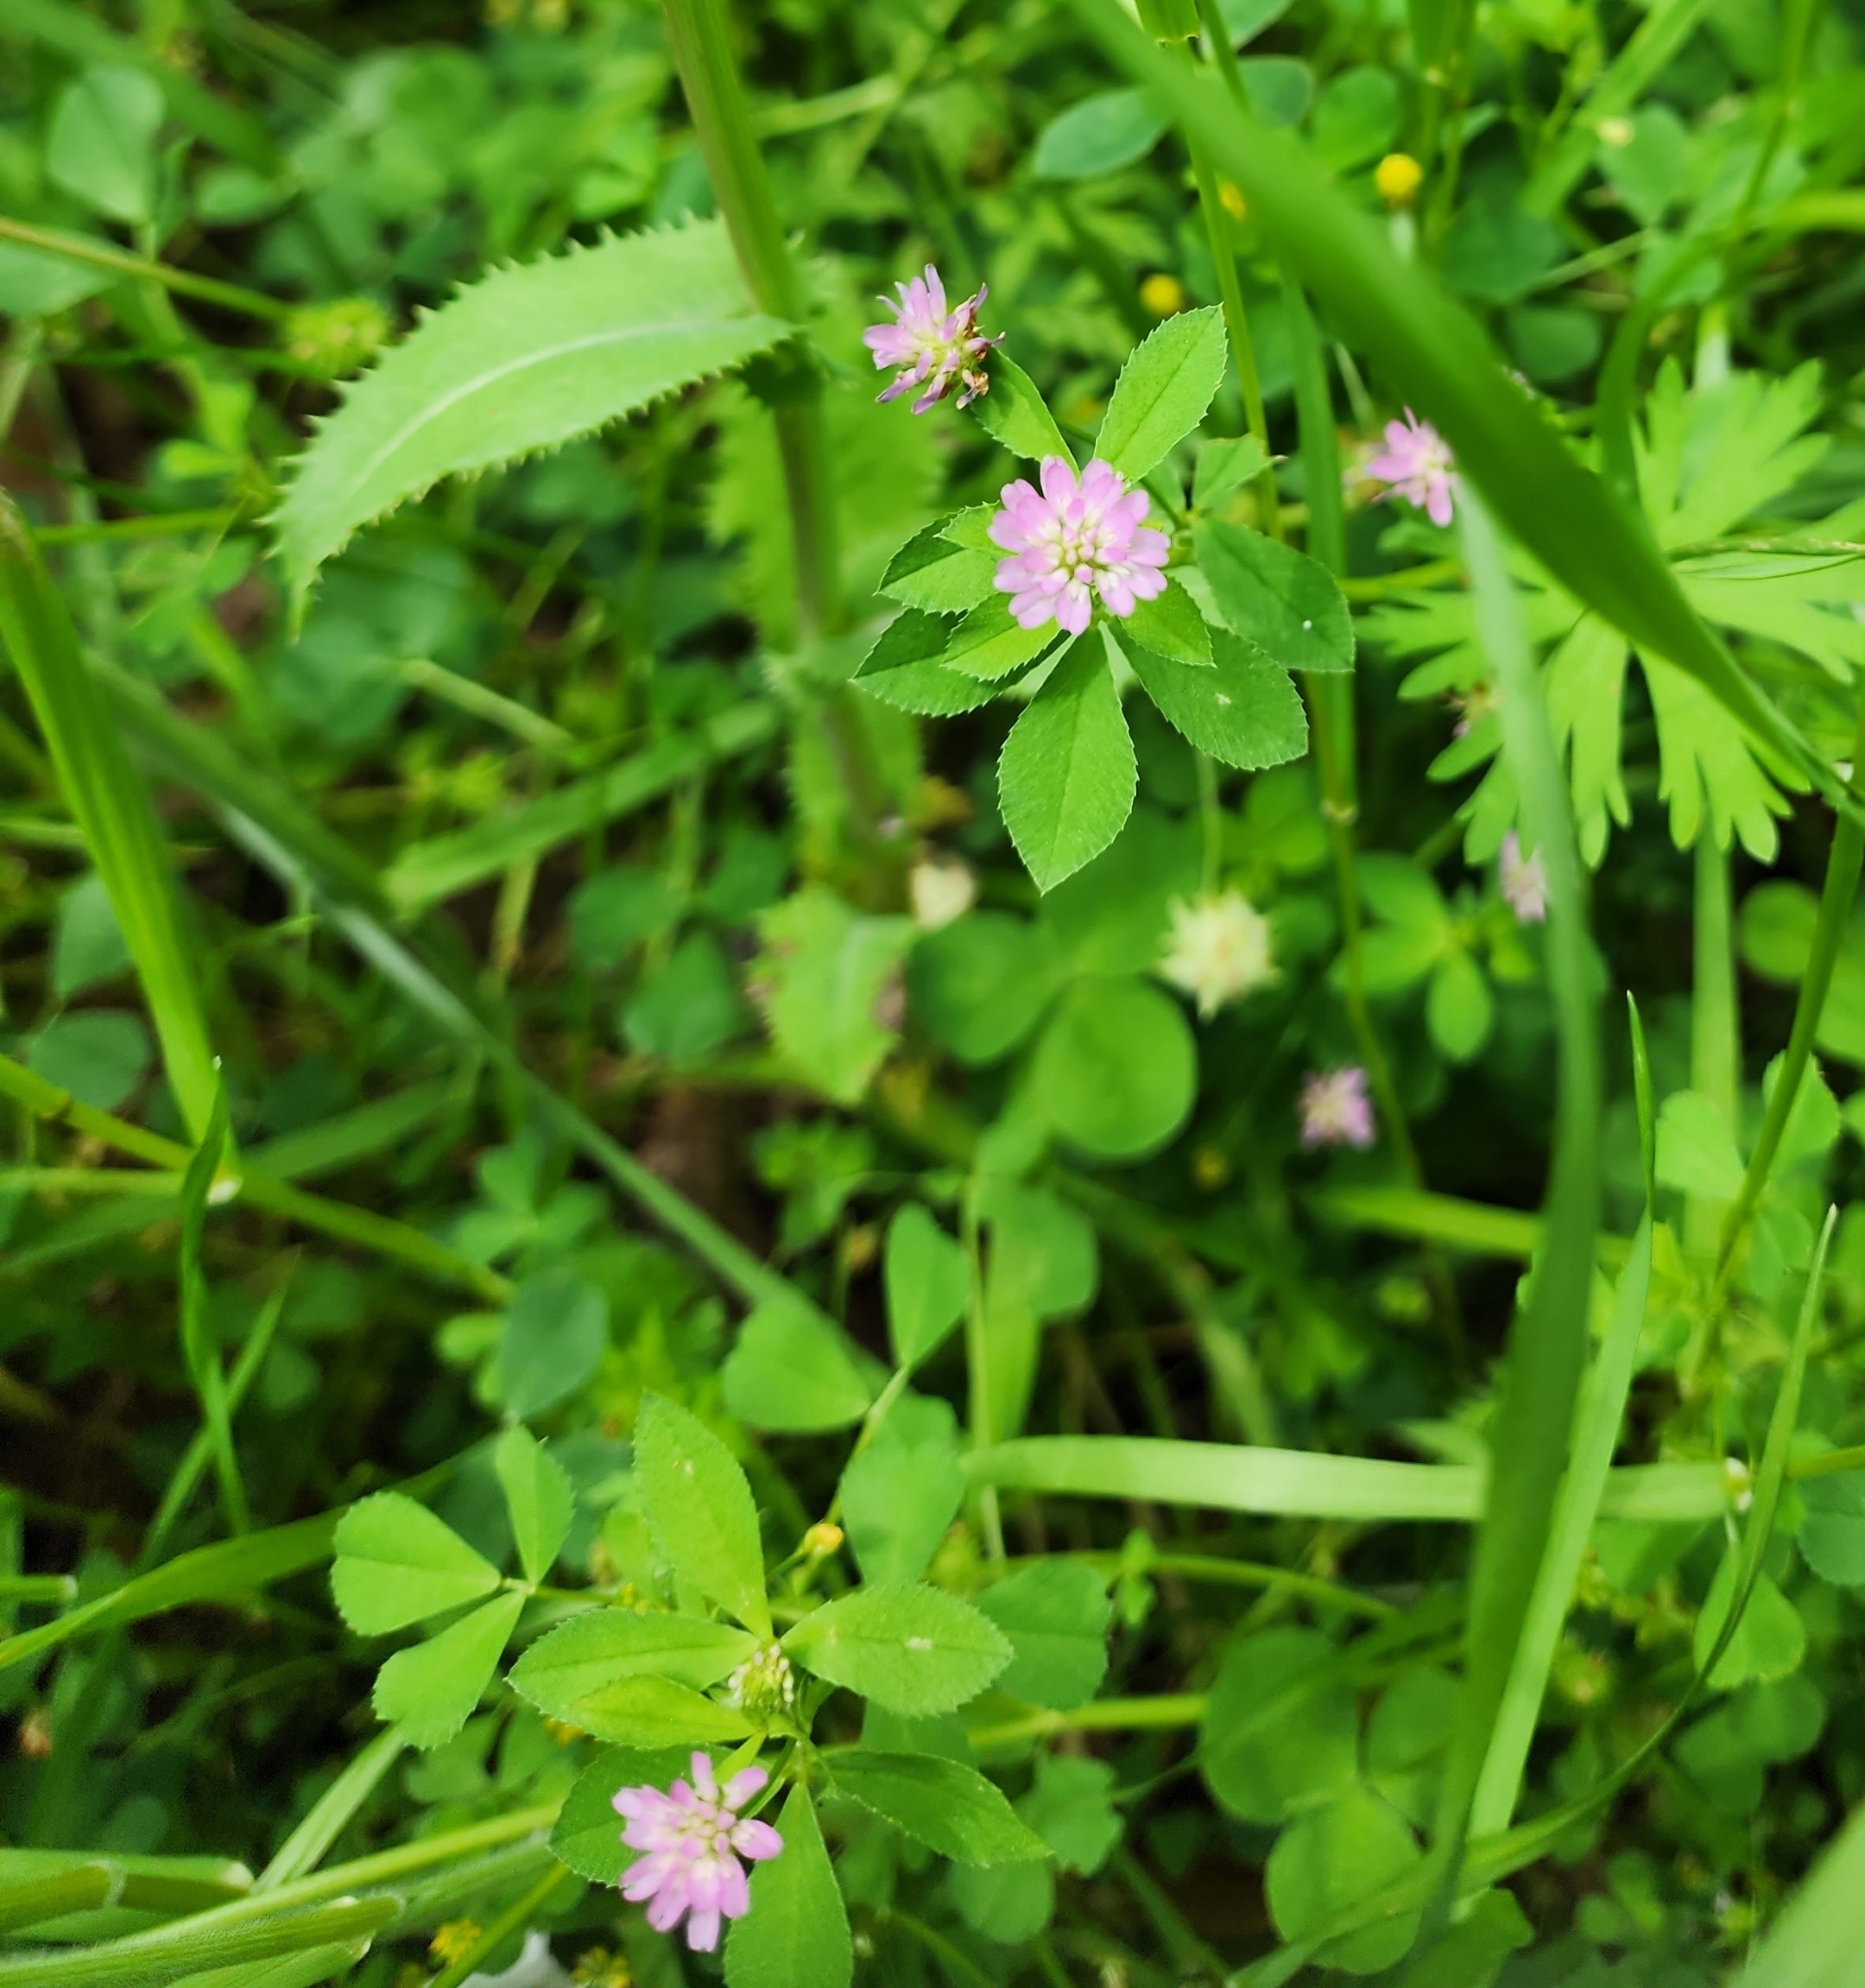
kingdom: Plantae
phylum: Tracheophyta
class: Magnoliopsida
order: Fabales
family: Fabaceae
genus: Trifolium
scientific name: Trifolium resupinatum
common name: Reversed clover
